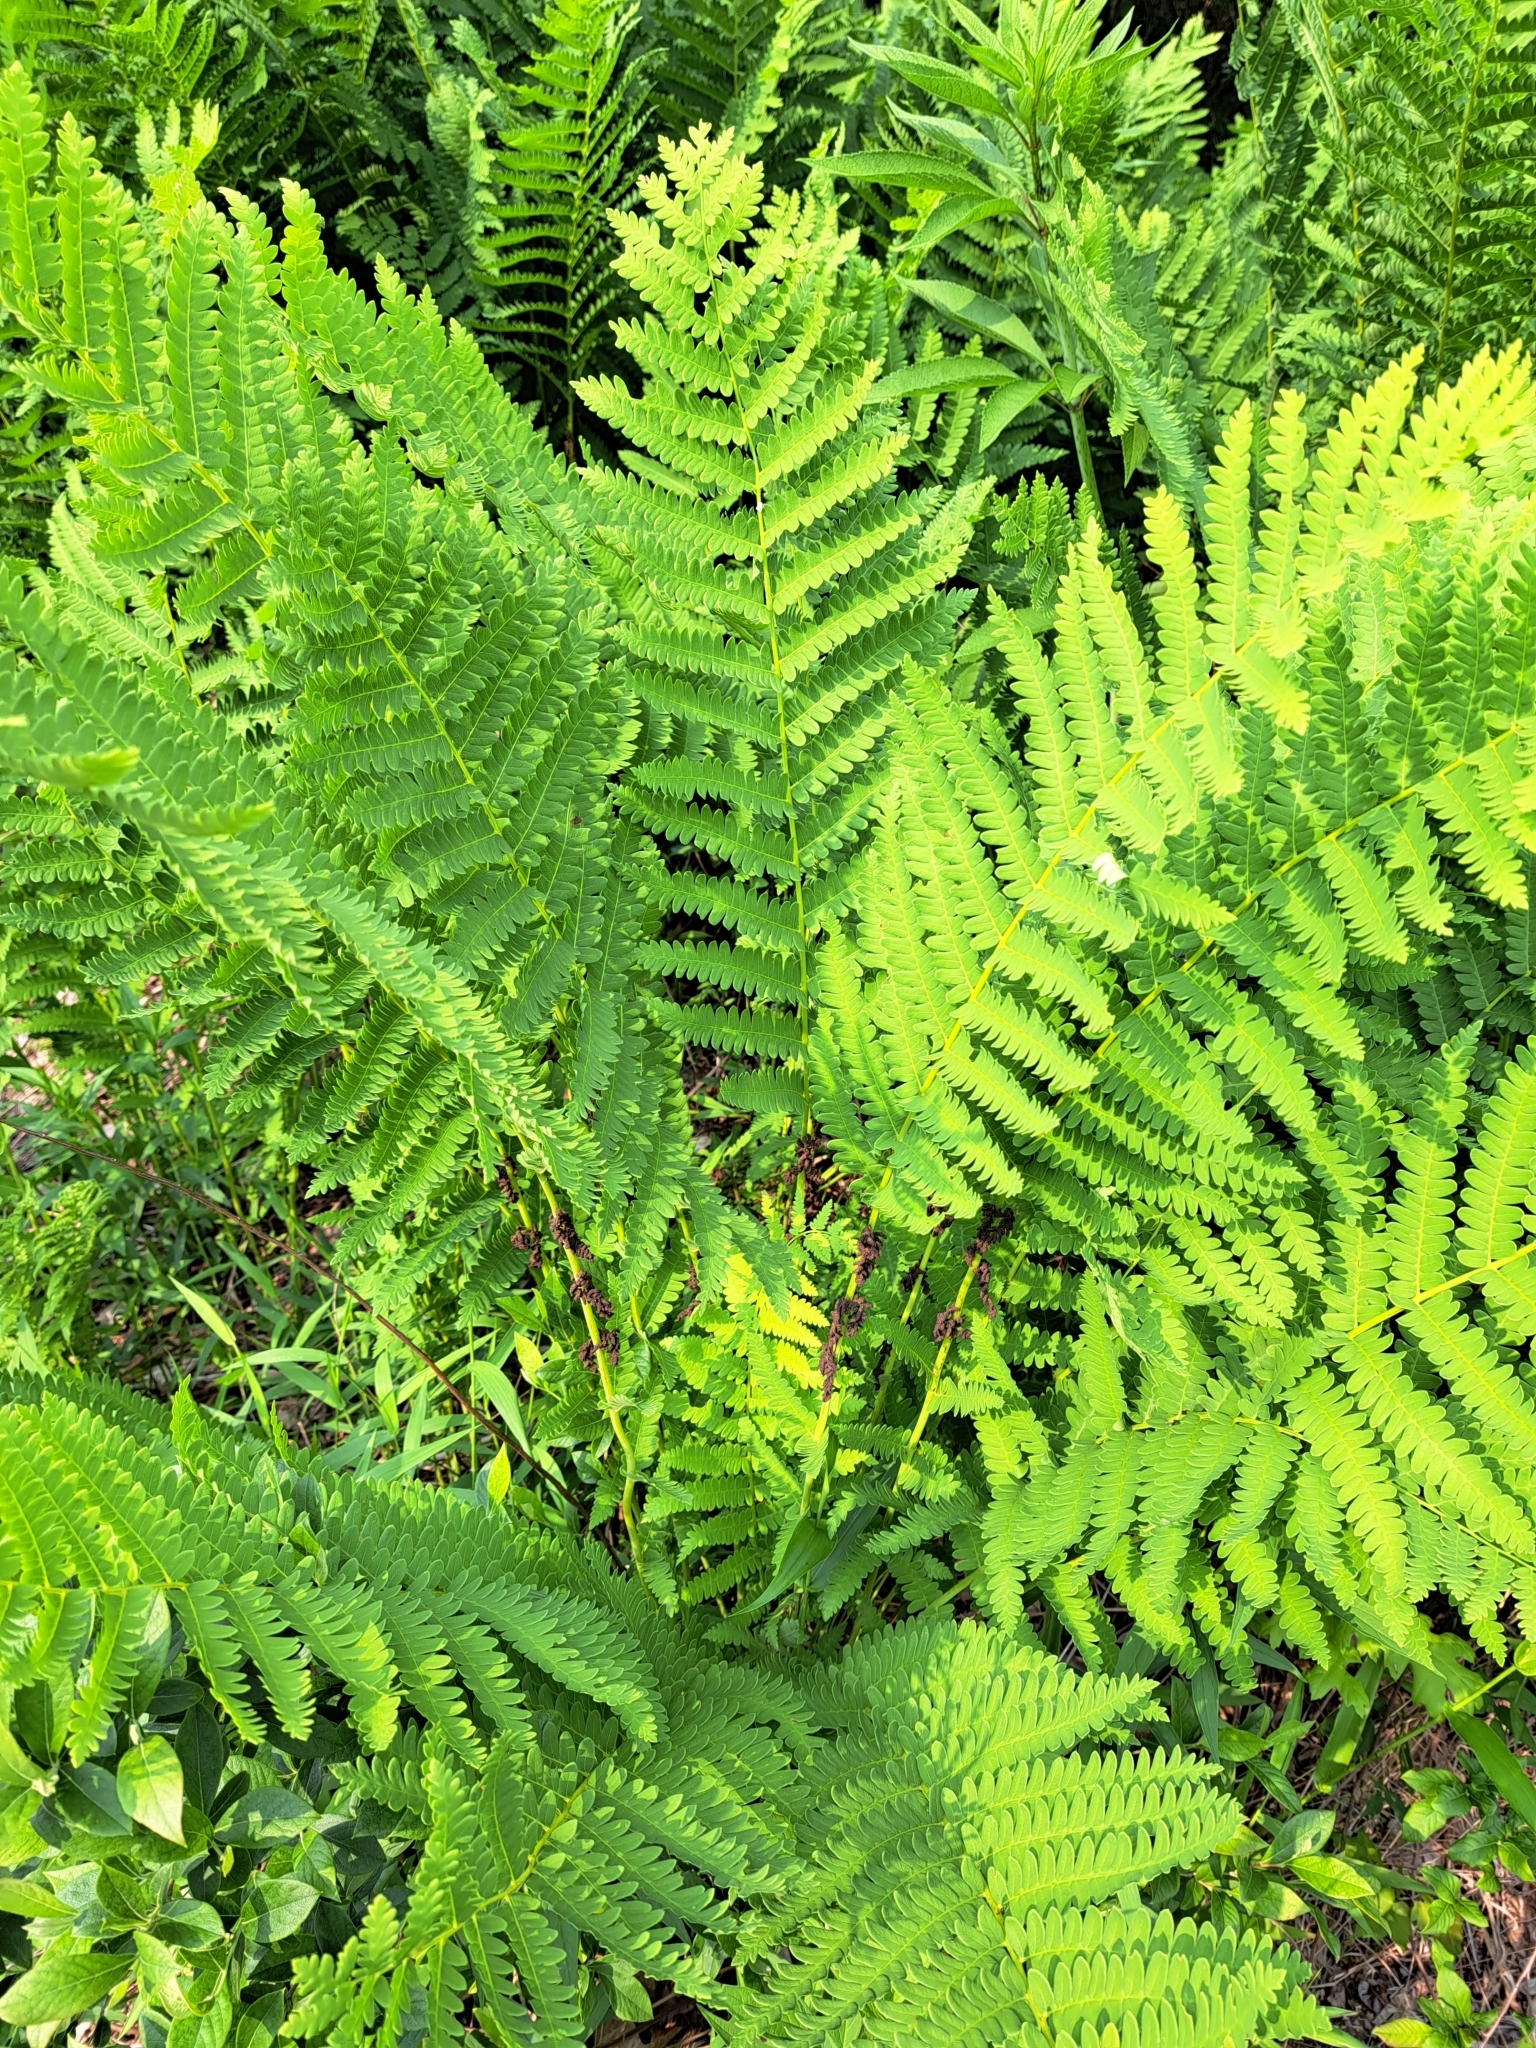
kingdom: Plantae
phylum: Tracheophyta
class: Polypodiopsida
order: Osmundales
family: Osmundaceae
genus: Claytosmunda
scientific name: Claytosmunda claytoniana
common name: Clayton's fern
